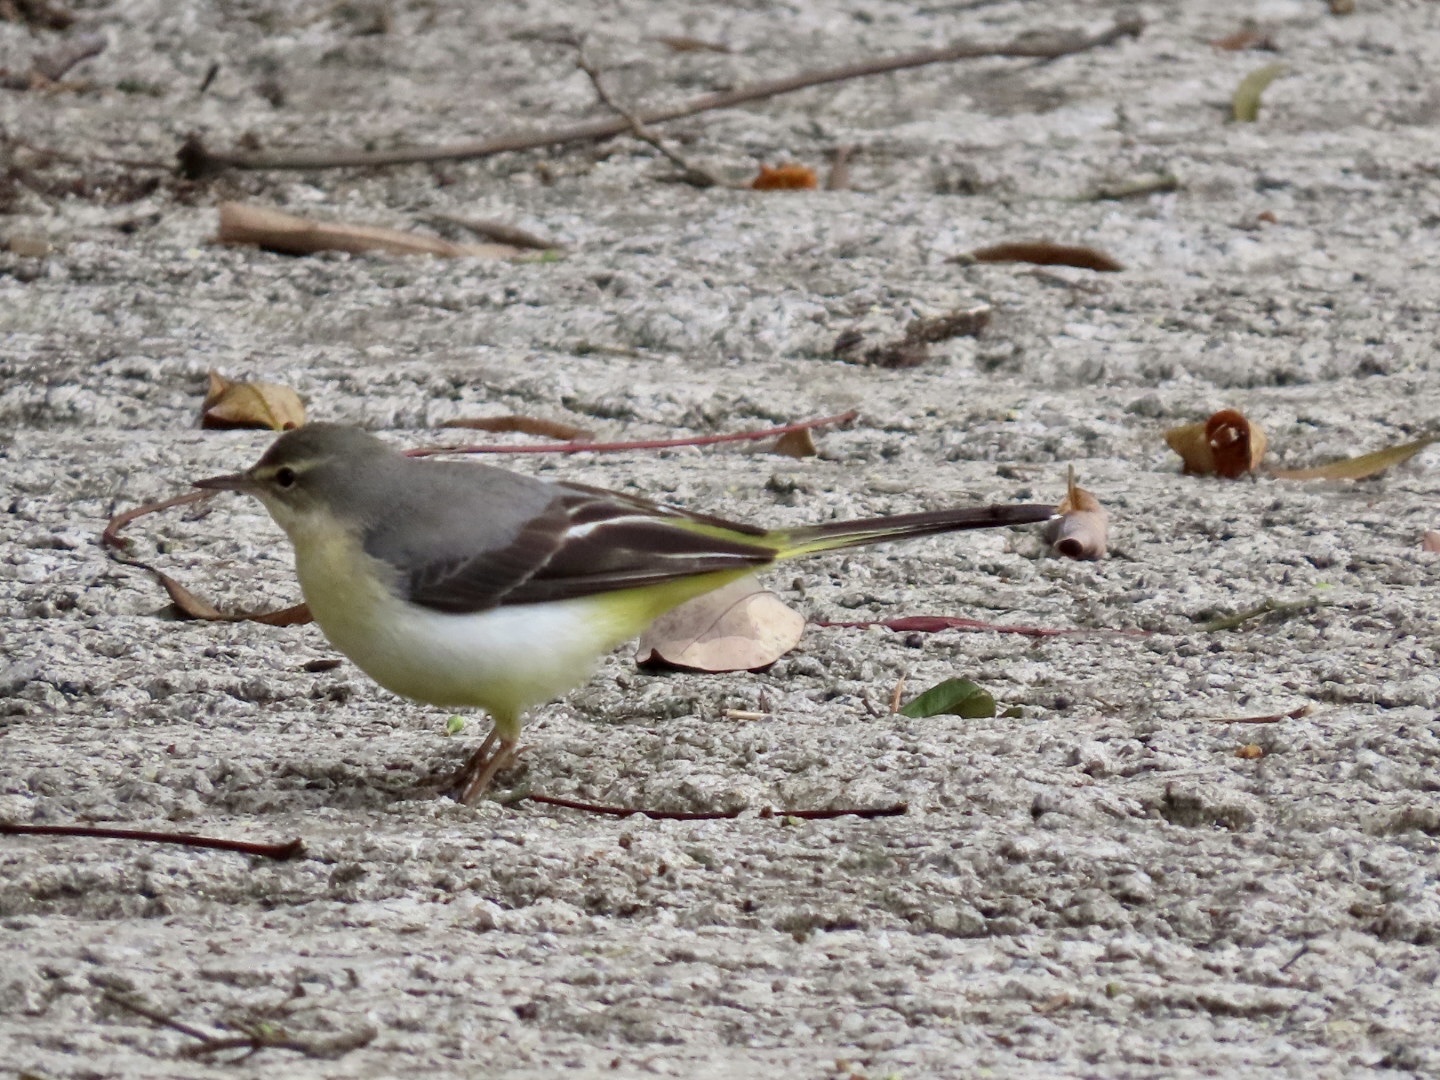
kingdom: Animalia
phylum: Chordata
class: Aves
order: Passeriformes
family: Motacillidae
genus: Motacilla
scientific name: Motacilla cinerea
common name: Grey wagtail
